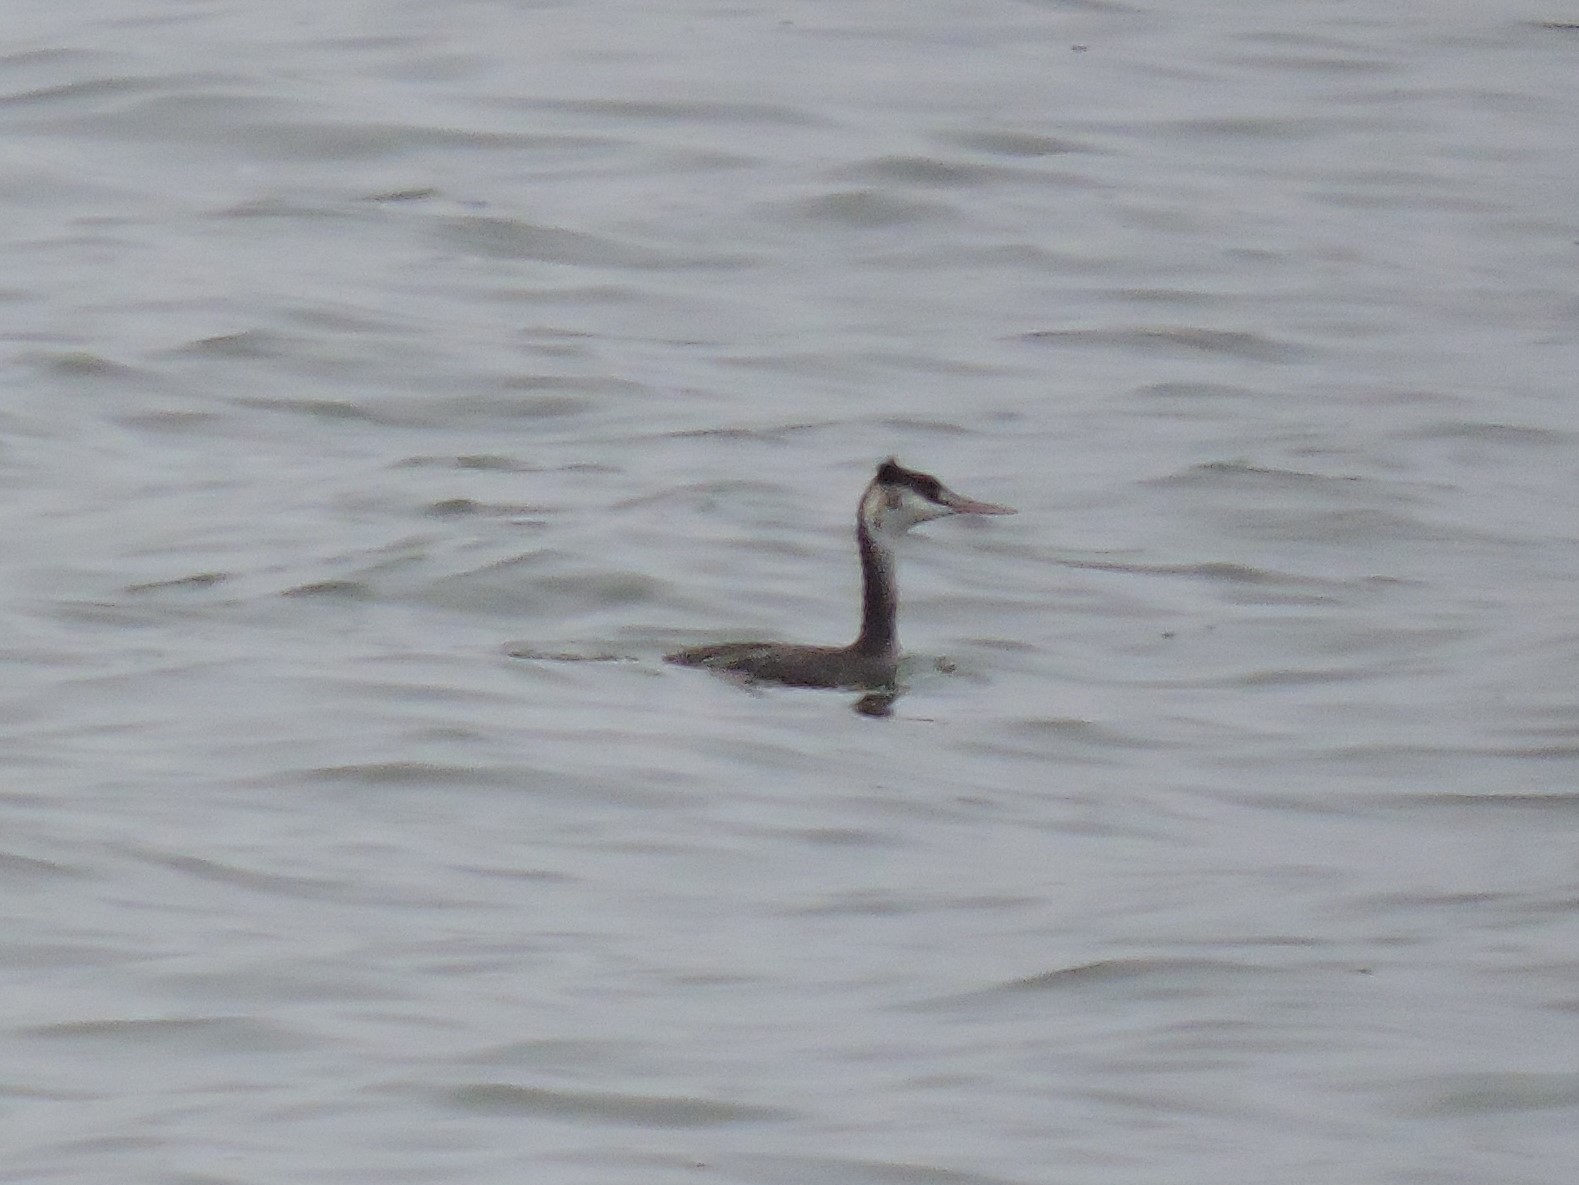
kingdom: Animalia
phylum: Chordata
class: Aves
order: Podicipediformes
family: Podicipedidae
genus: Podiceps
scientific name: Podiceps cristatus
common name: Great crested grebe
